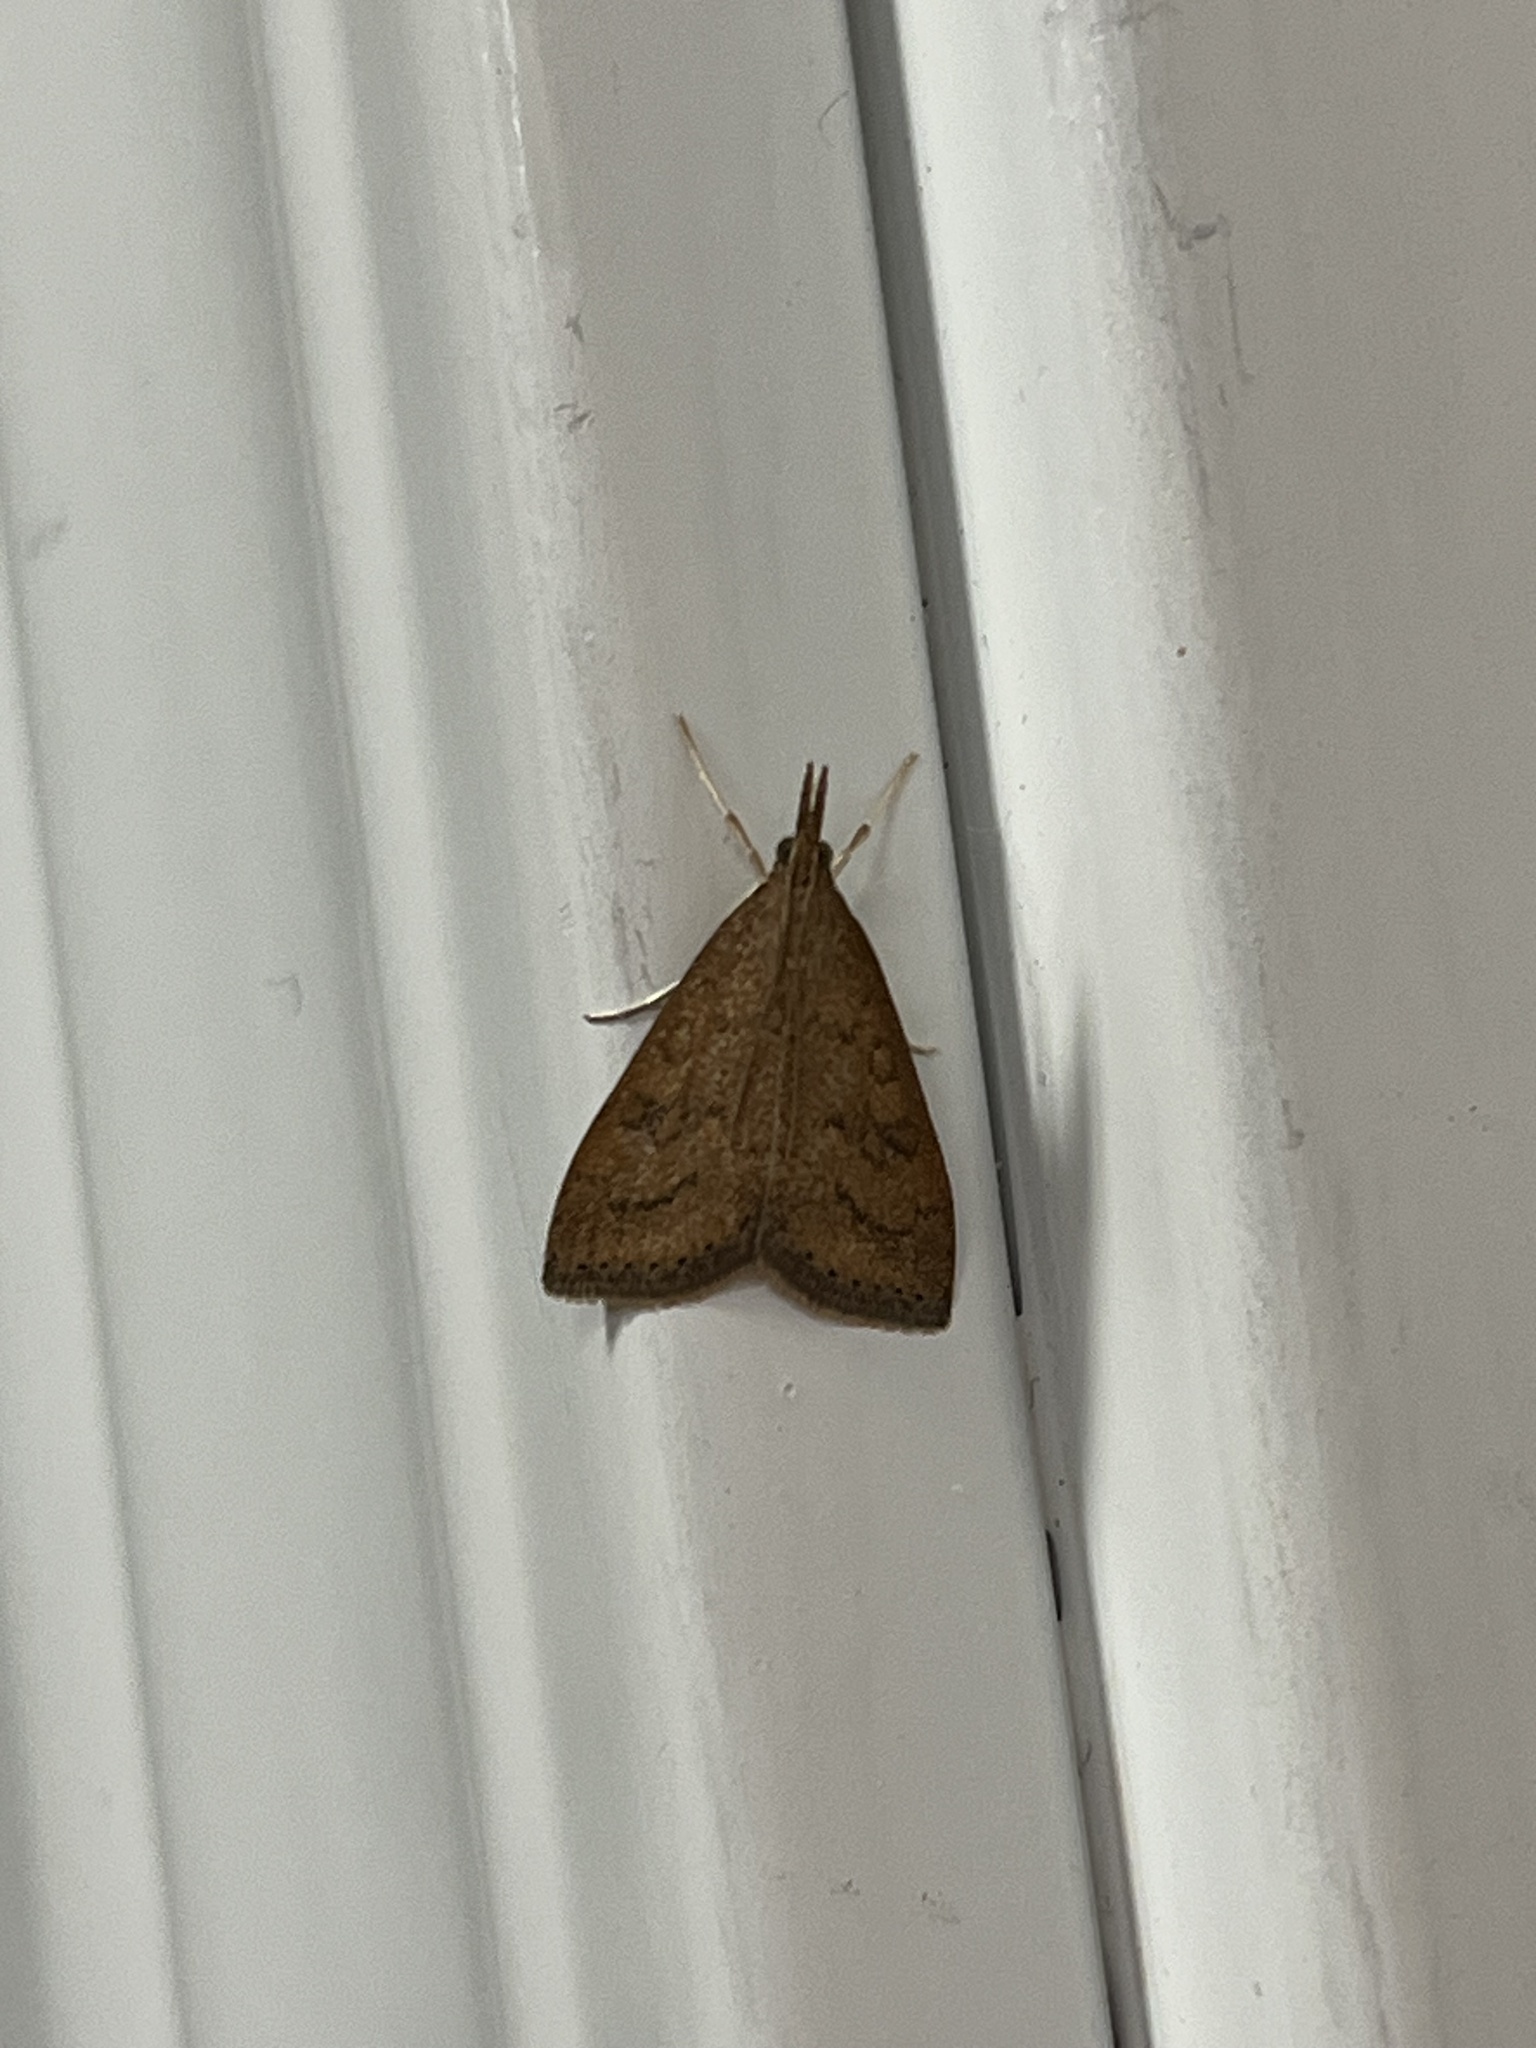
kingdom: Animalia
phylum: Arthropoda
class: Insecta
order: Lepidoptera
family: Crambidae
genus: Udea
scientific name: Udea rubigalis
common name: Celery leaftier moth
